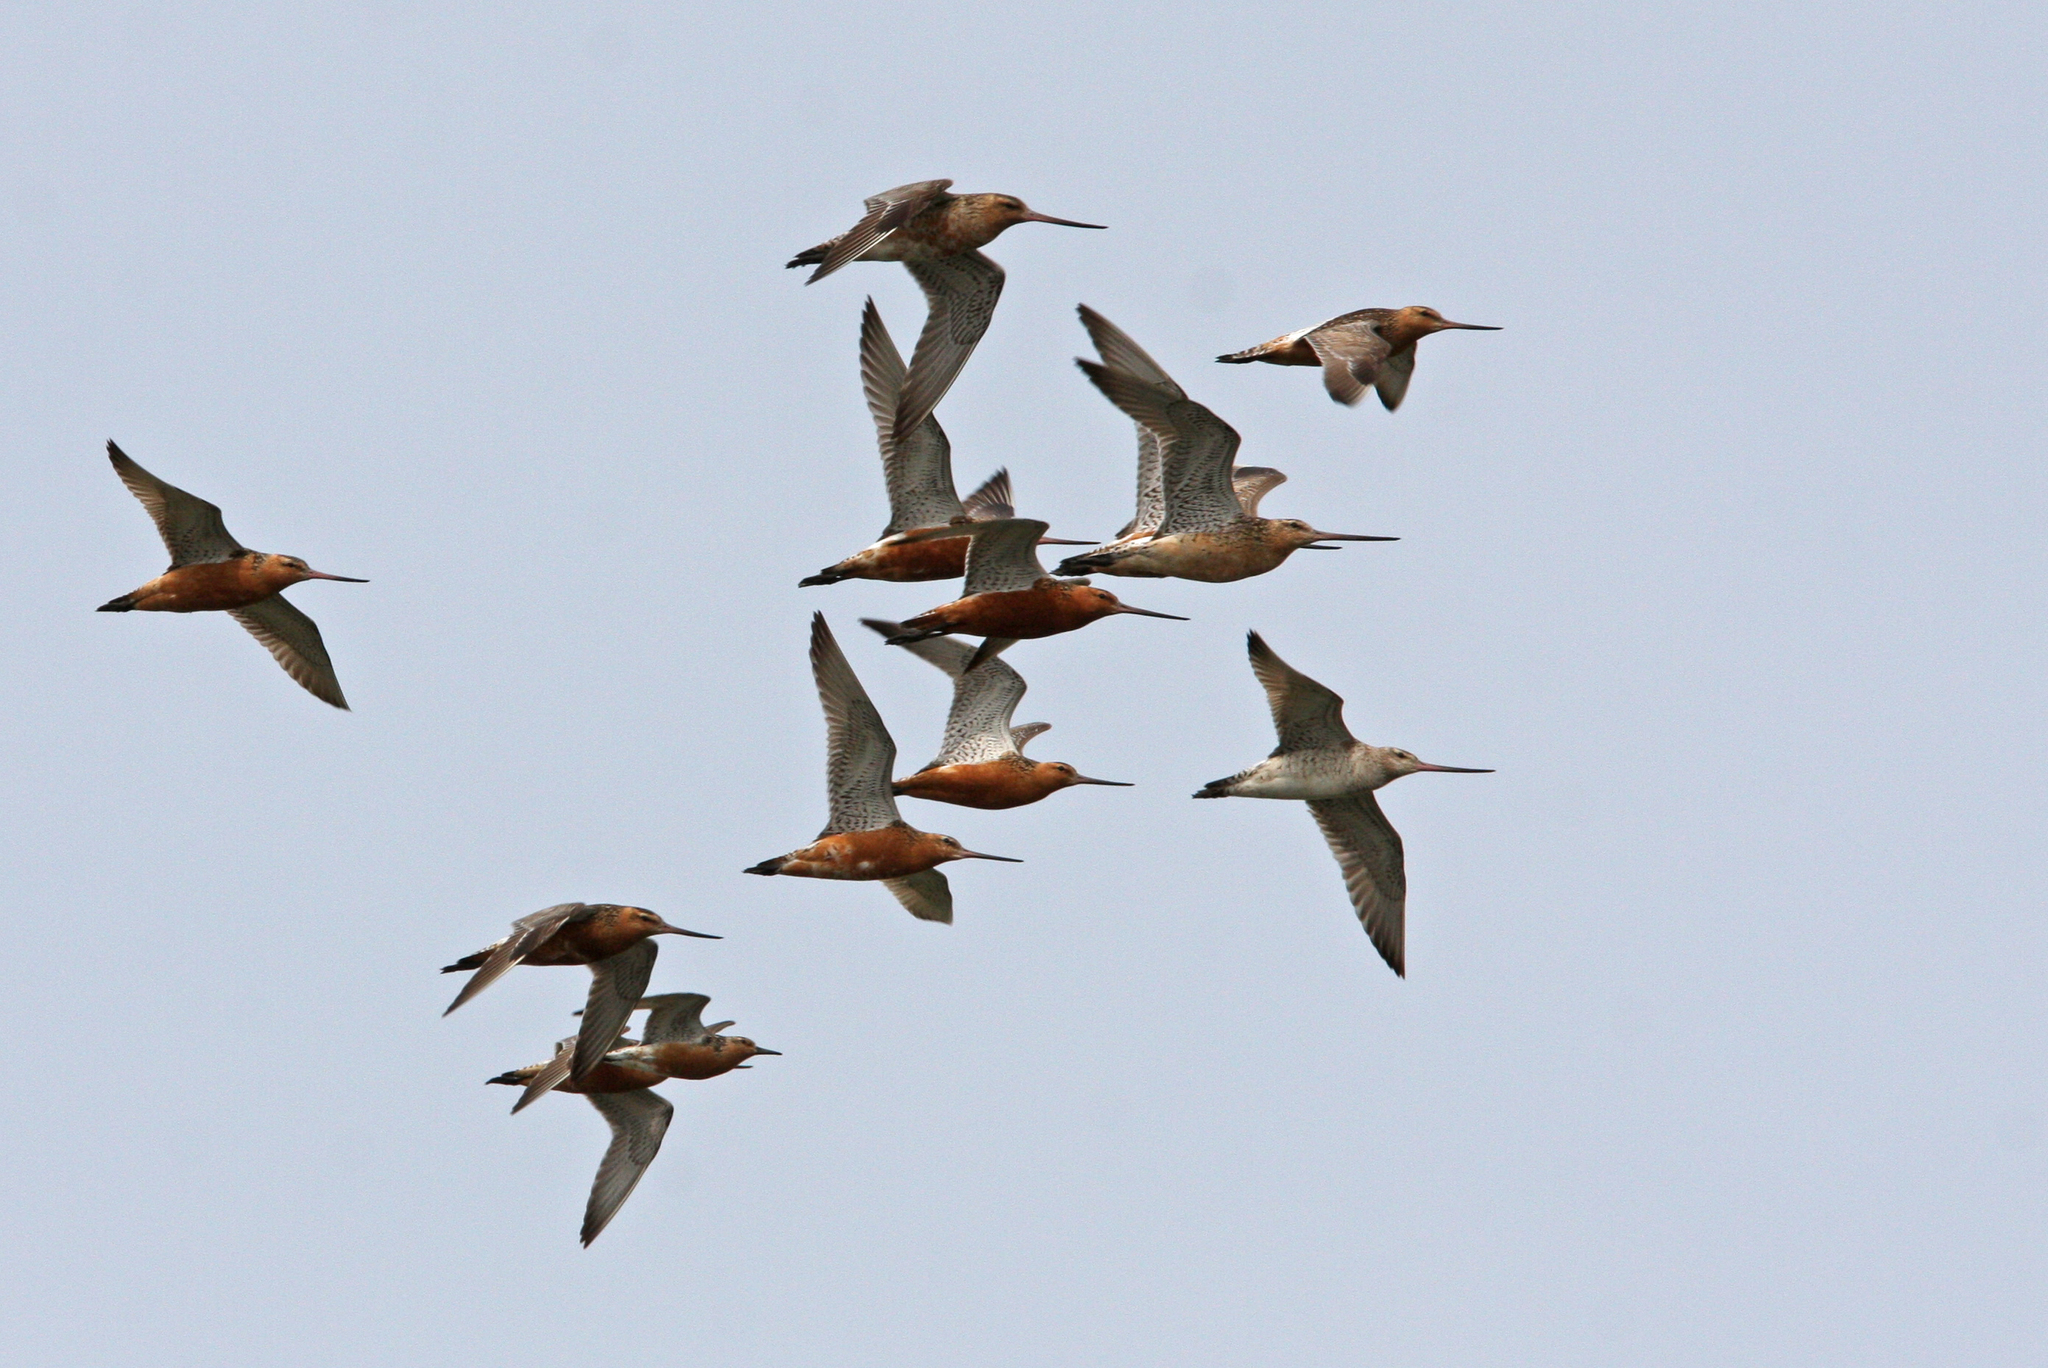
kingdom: Animalia
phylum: Chordata
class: Aves
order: Charadriiformes
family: Scolopacidae
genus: Limosa
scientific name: Limosa lapponica
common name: Bar-tailed godwit
